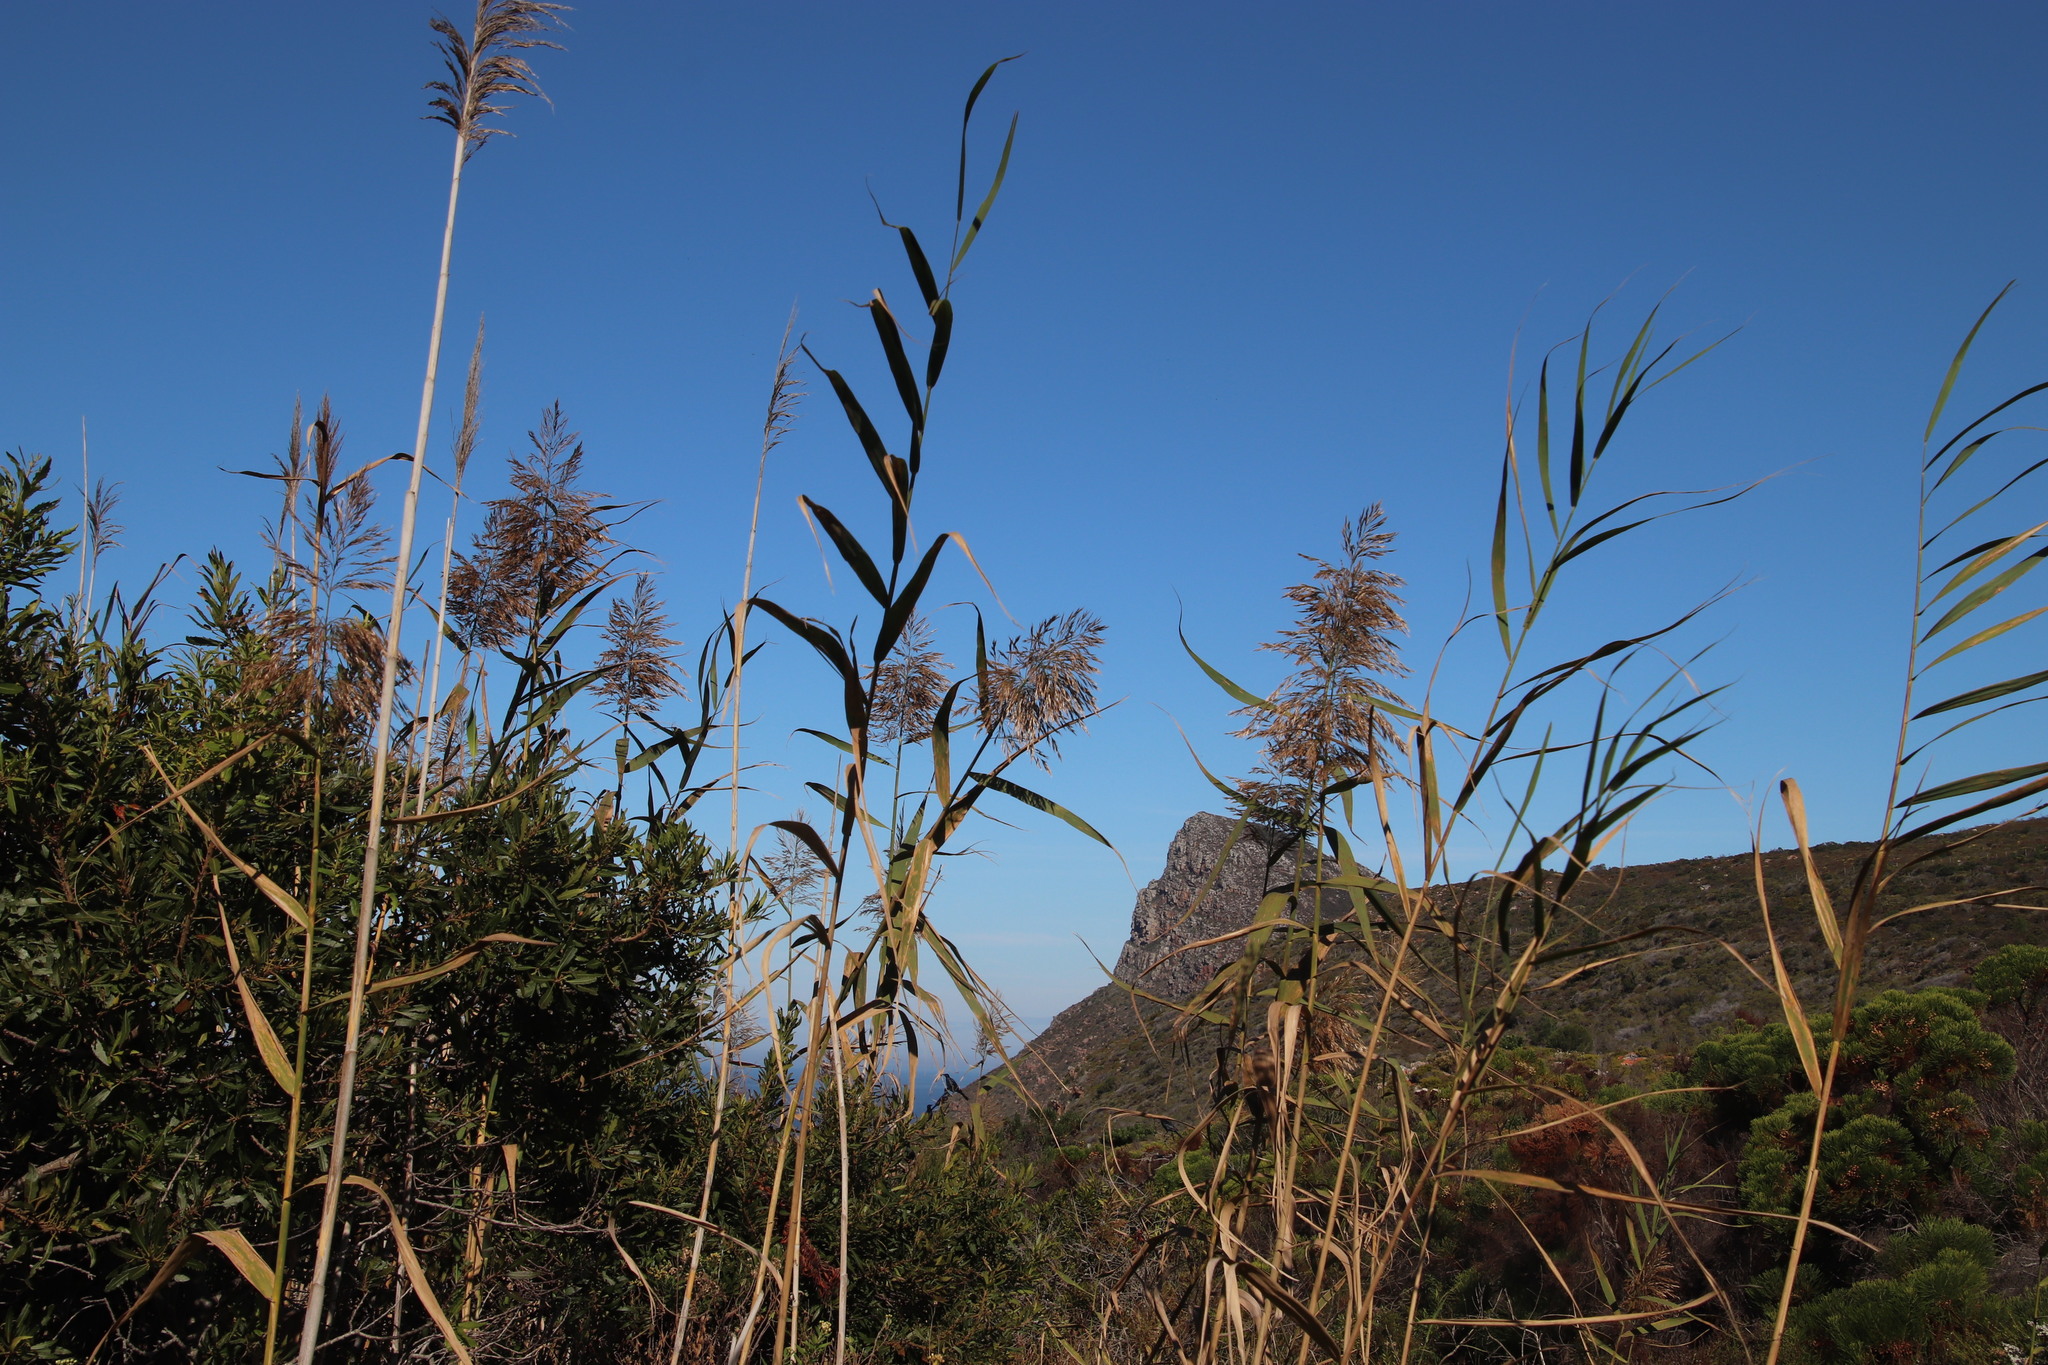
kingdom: Plantae
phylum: Tracheophyta
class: Liliopsida
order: Poales
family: Poaceae
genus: Phragmites
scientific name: Phragmites australis
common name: Common reed
